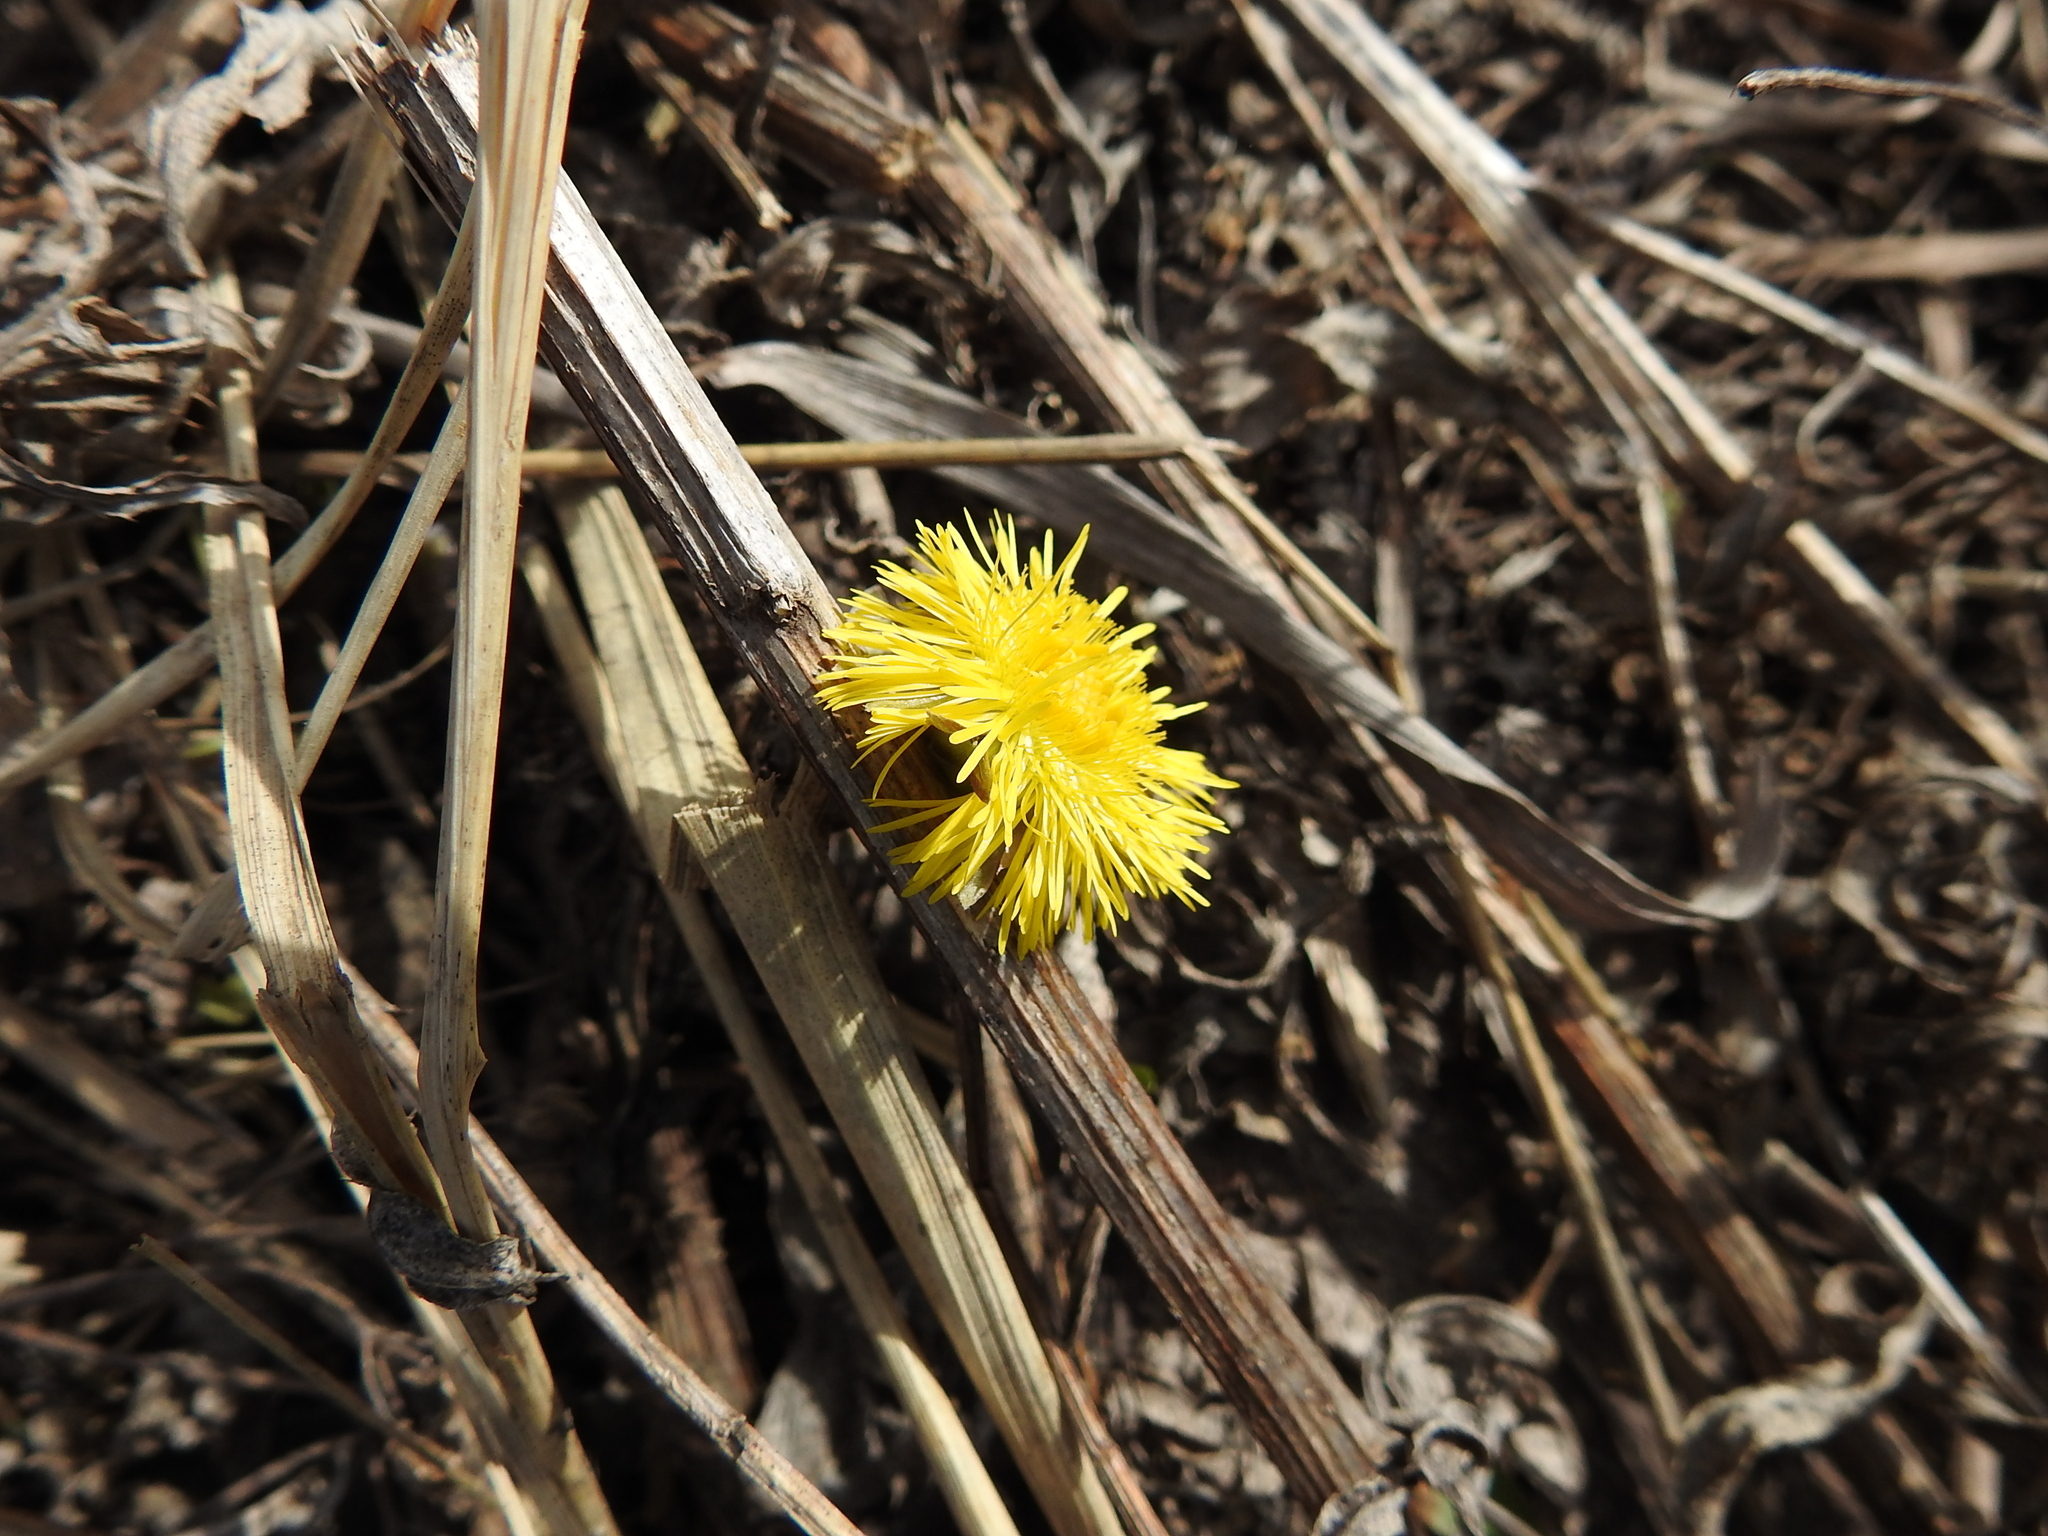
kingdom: Plantae
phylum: Tracheophyta
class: Magnoliopsida
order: Asterales
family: Asteraceae
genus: Tussilago
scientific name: Tussilago farfara
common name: Coltsfoot
